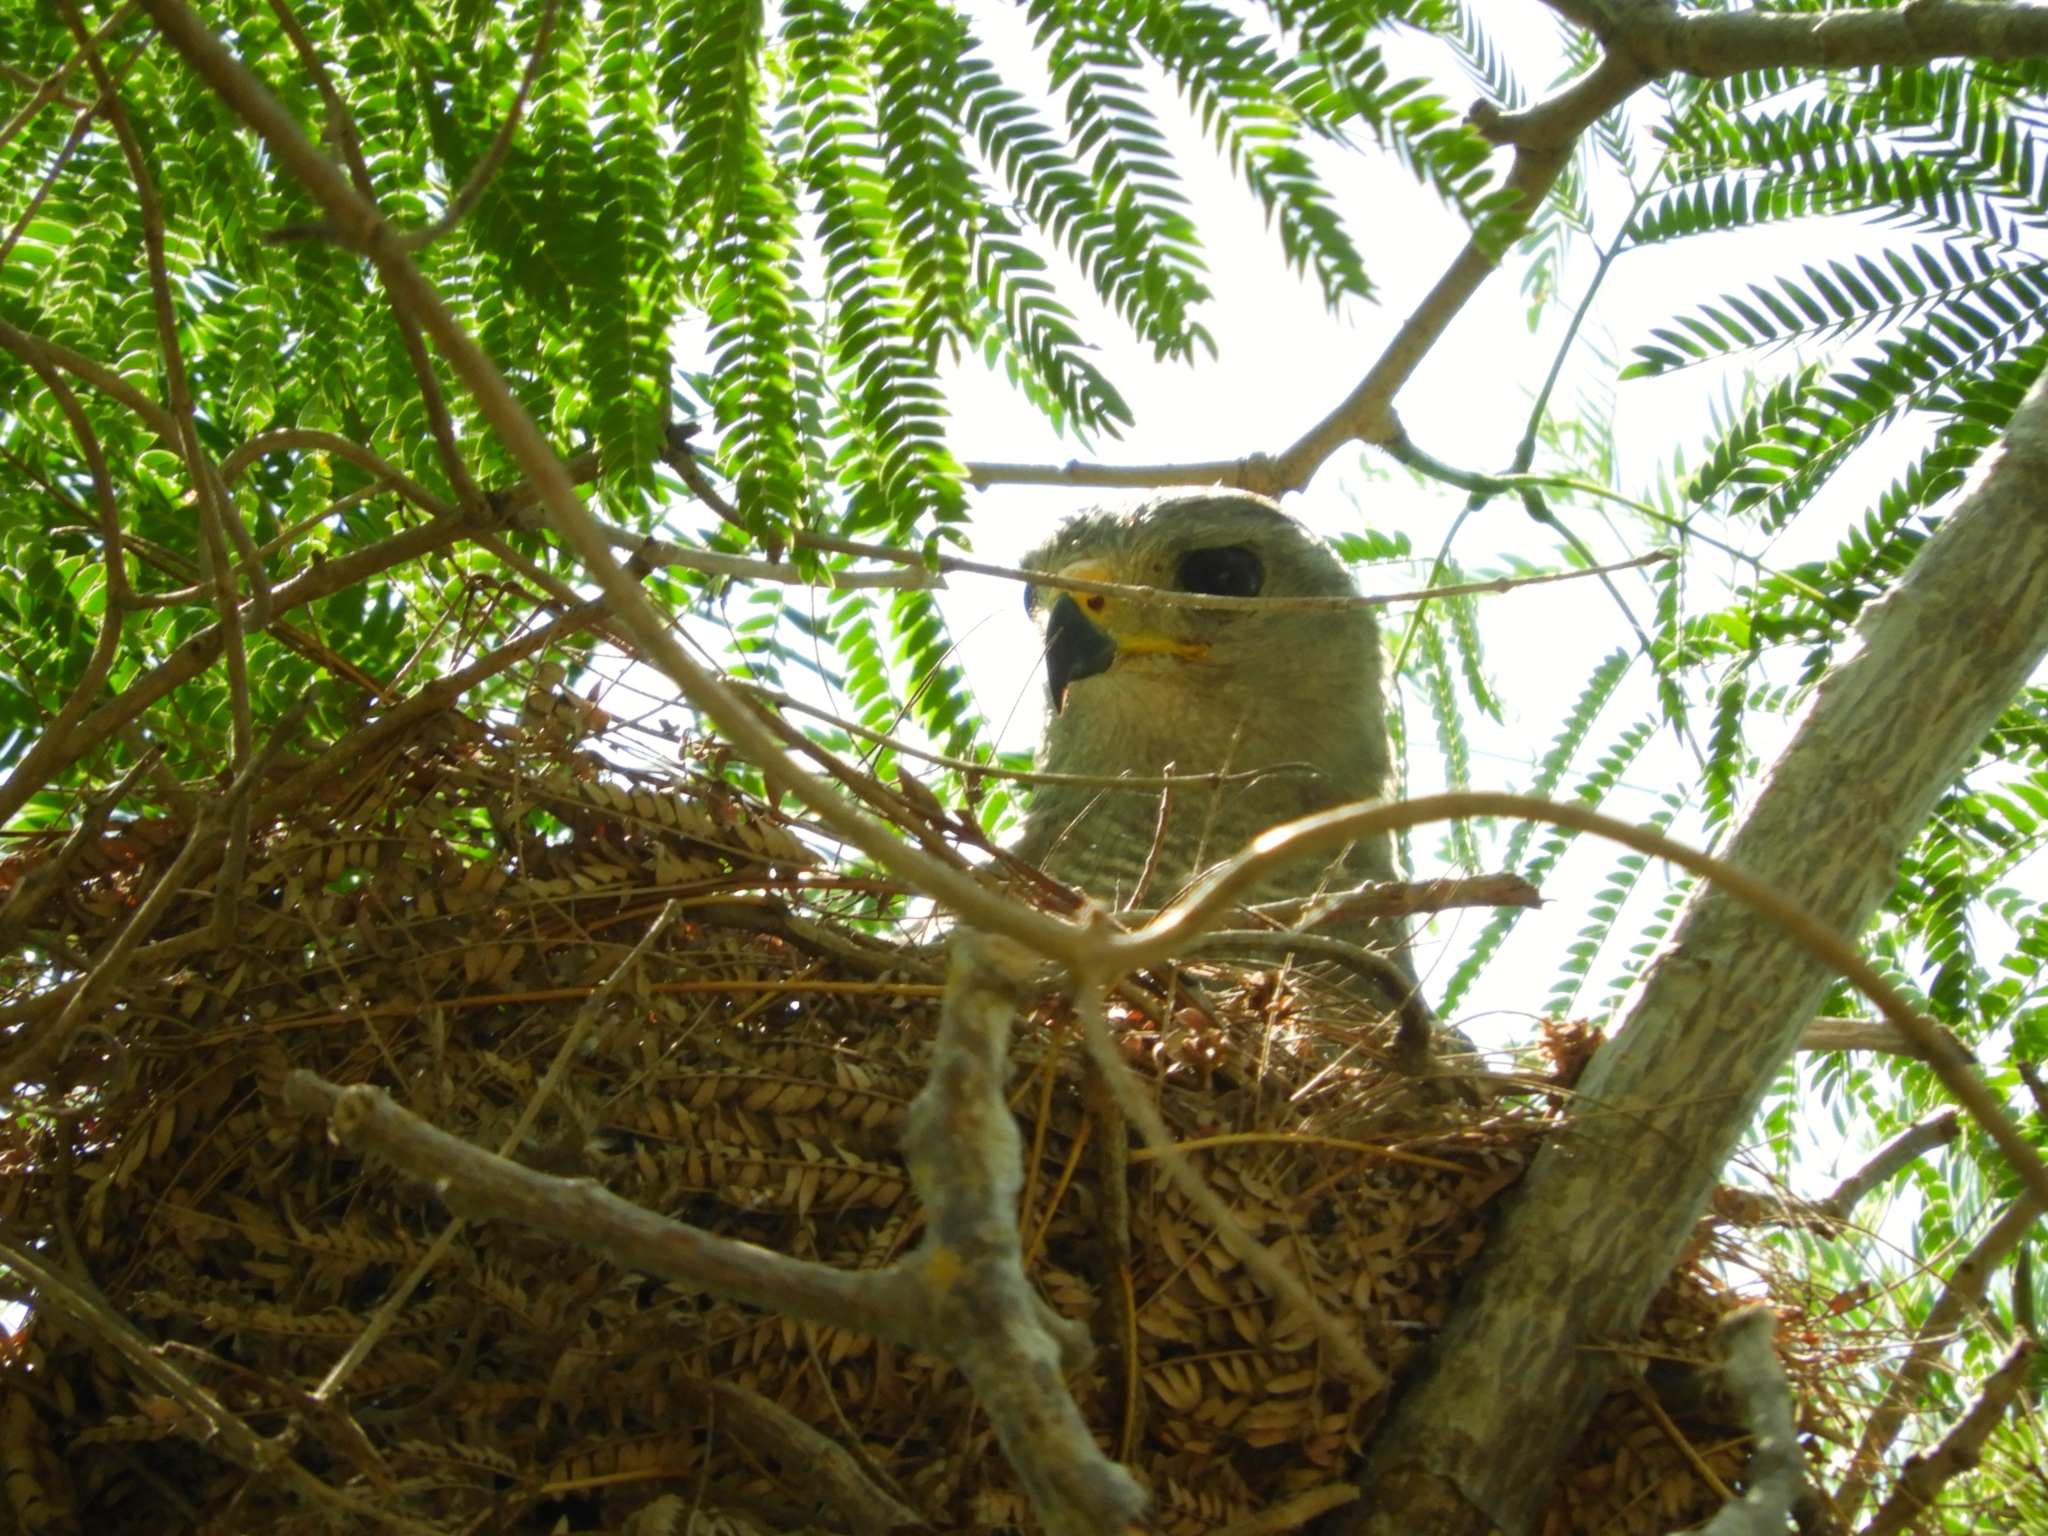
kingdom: Animalia
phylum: Chordata
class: Aves
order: Accipitriformes
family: Accipitridae
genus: Buteo
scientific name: Buteo nitidus
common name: Grey-lined hawk
